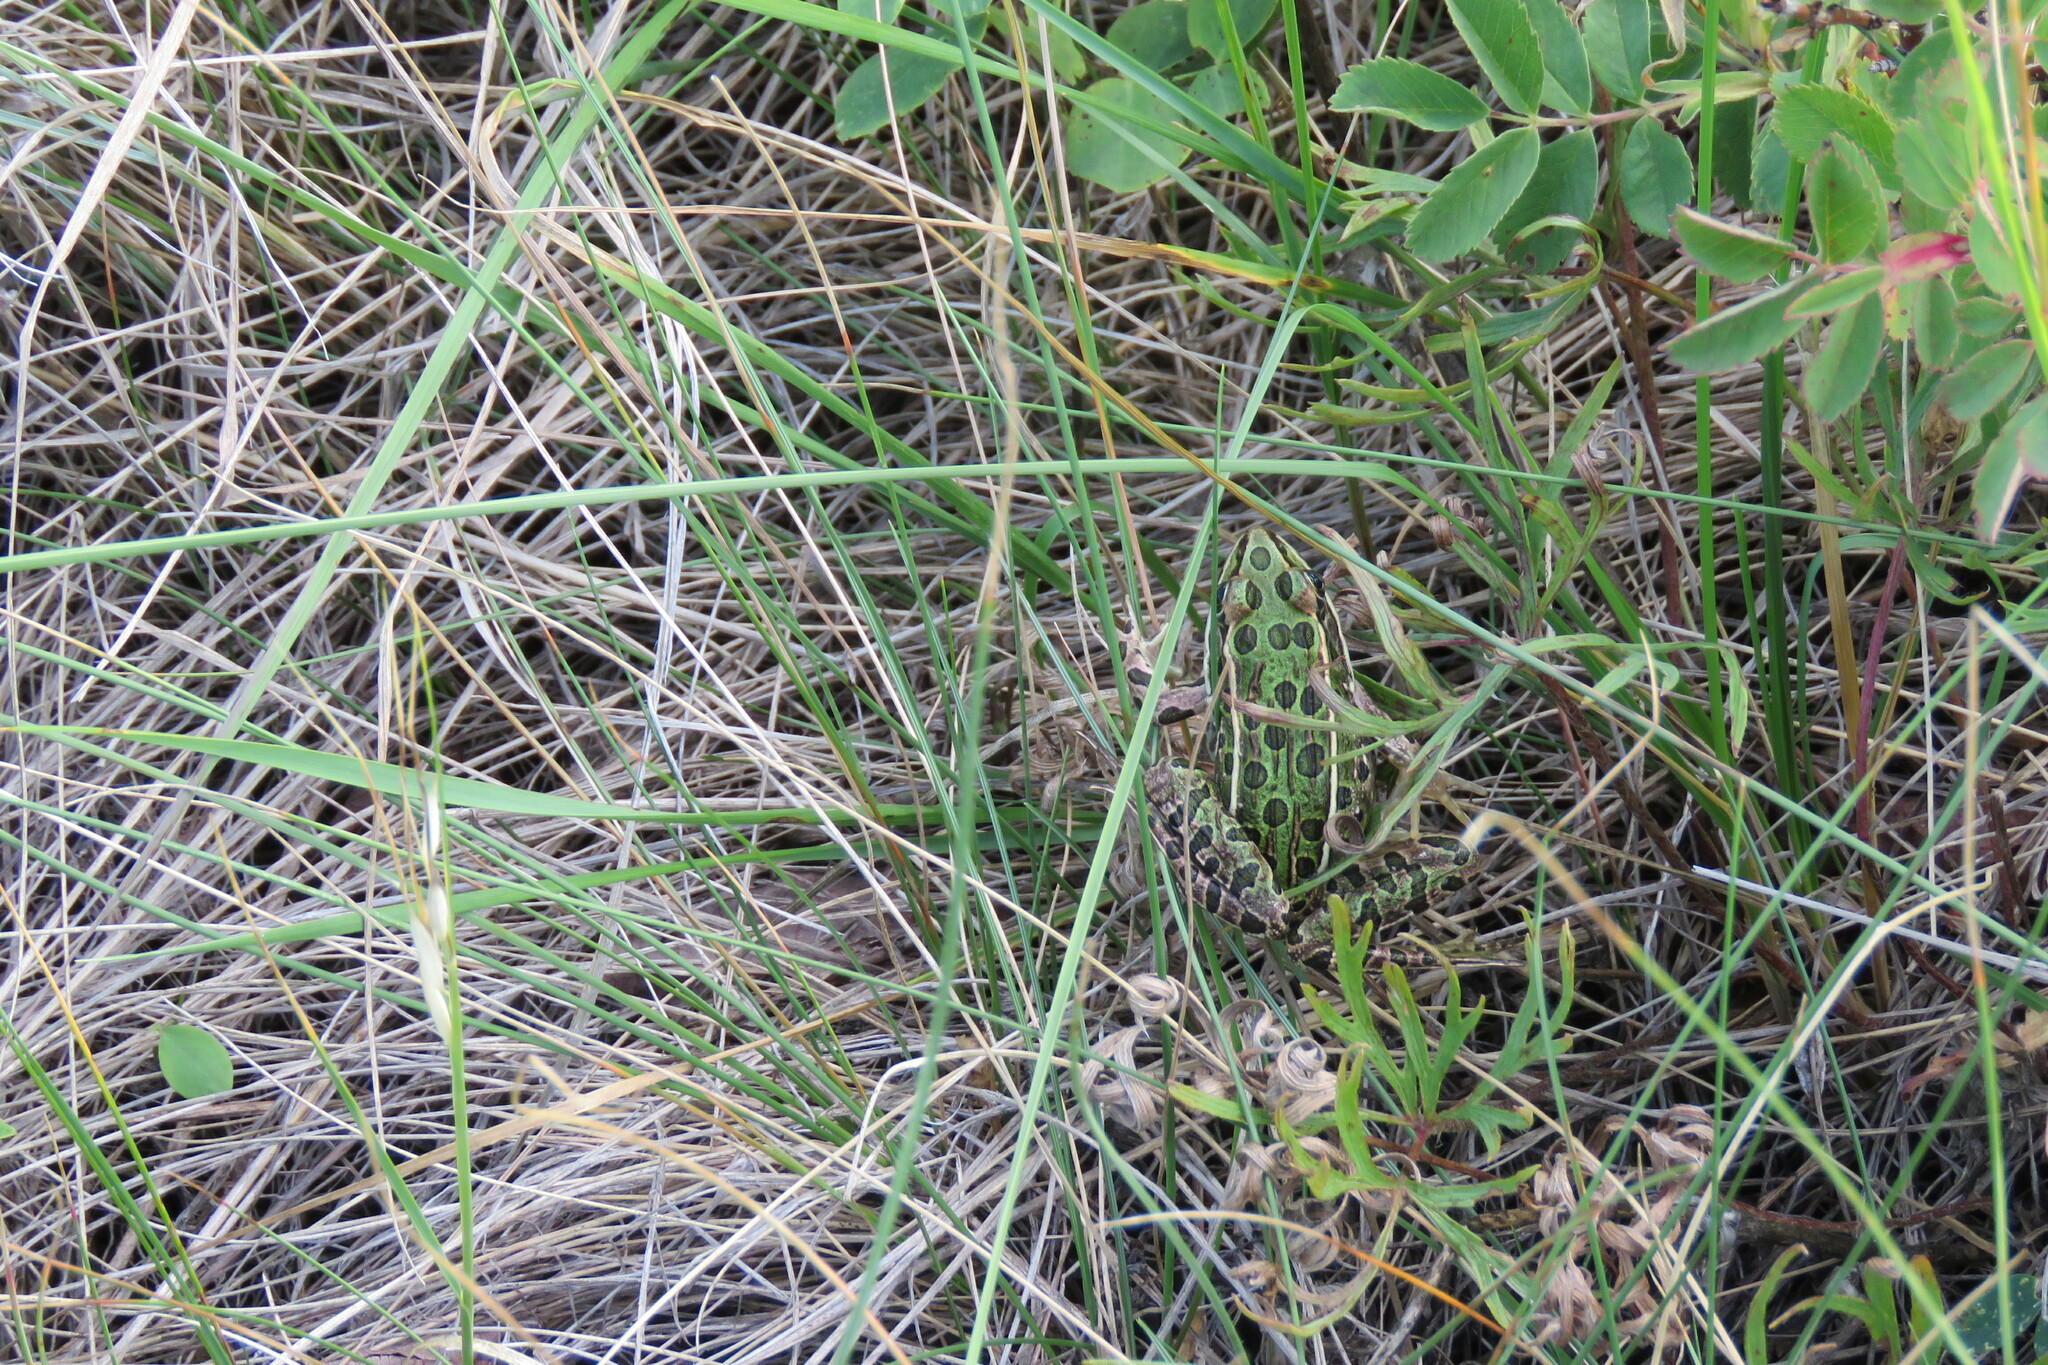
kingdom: Animalia
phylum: Chordata
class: Amphibia
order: Anura
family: Ranidae
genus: Lithobates
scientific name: Lithobates pipiens
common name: Northern leopard frog
